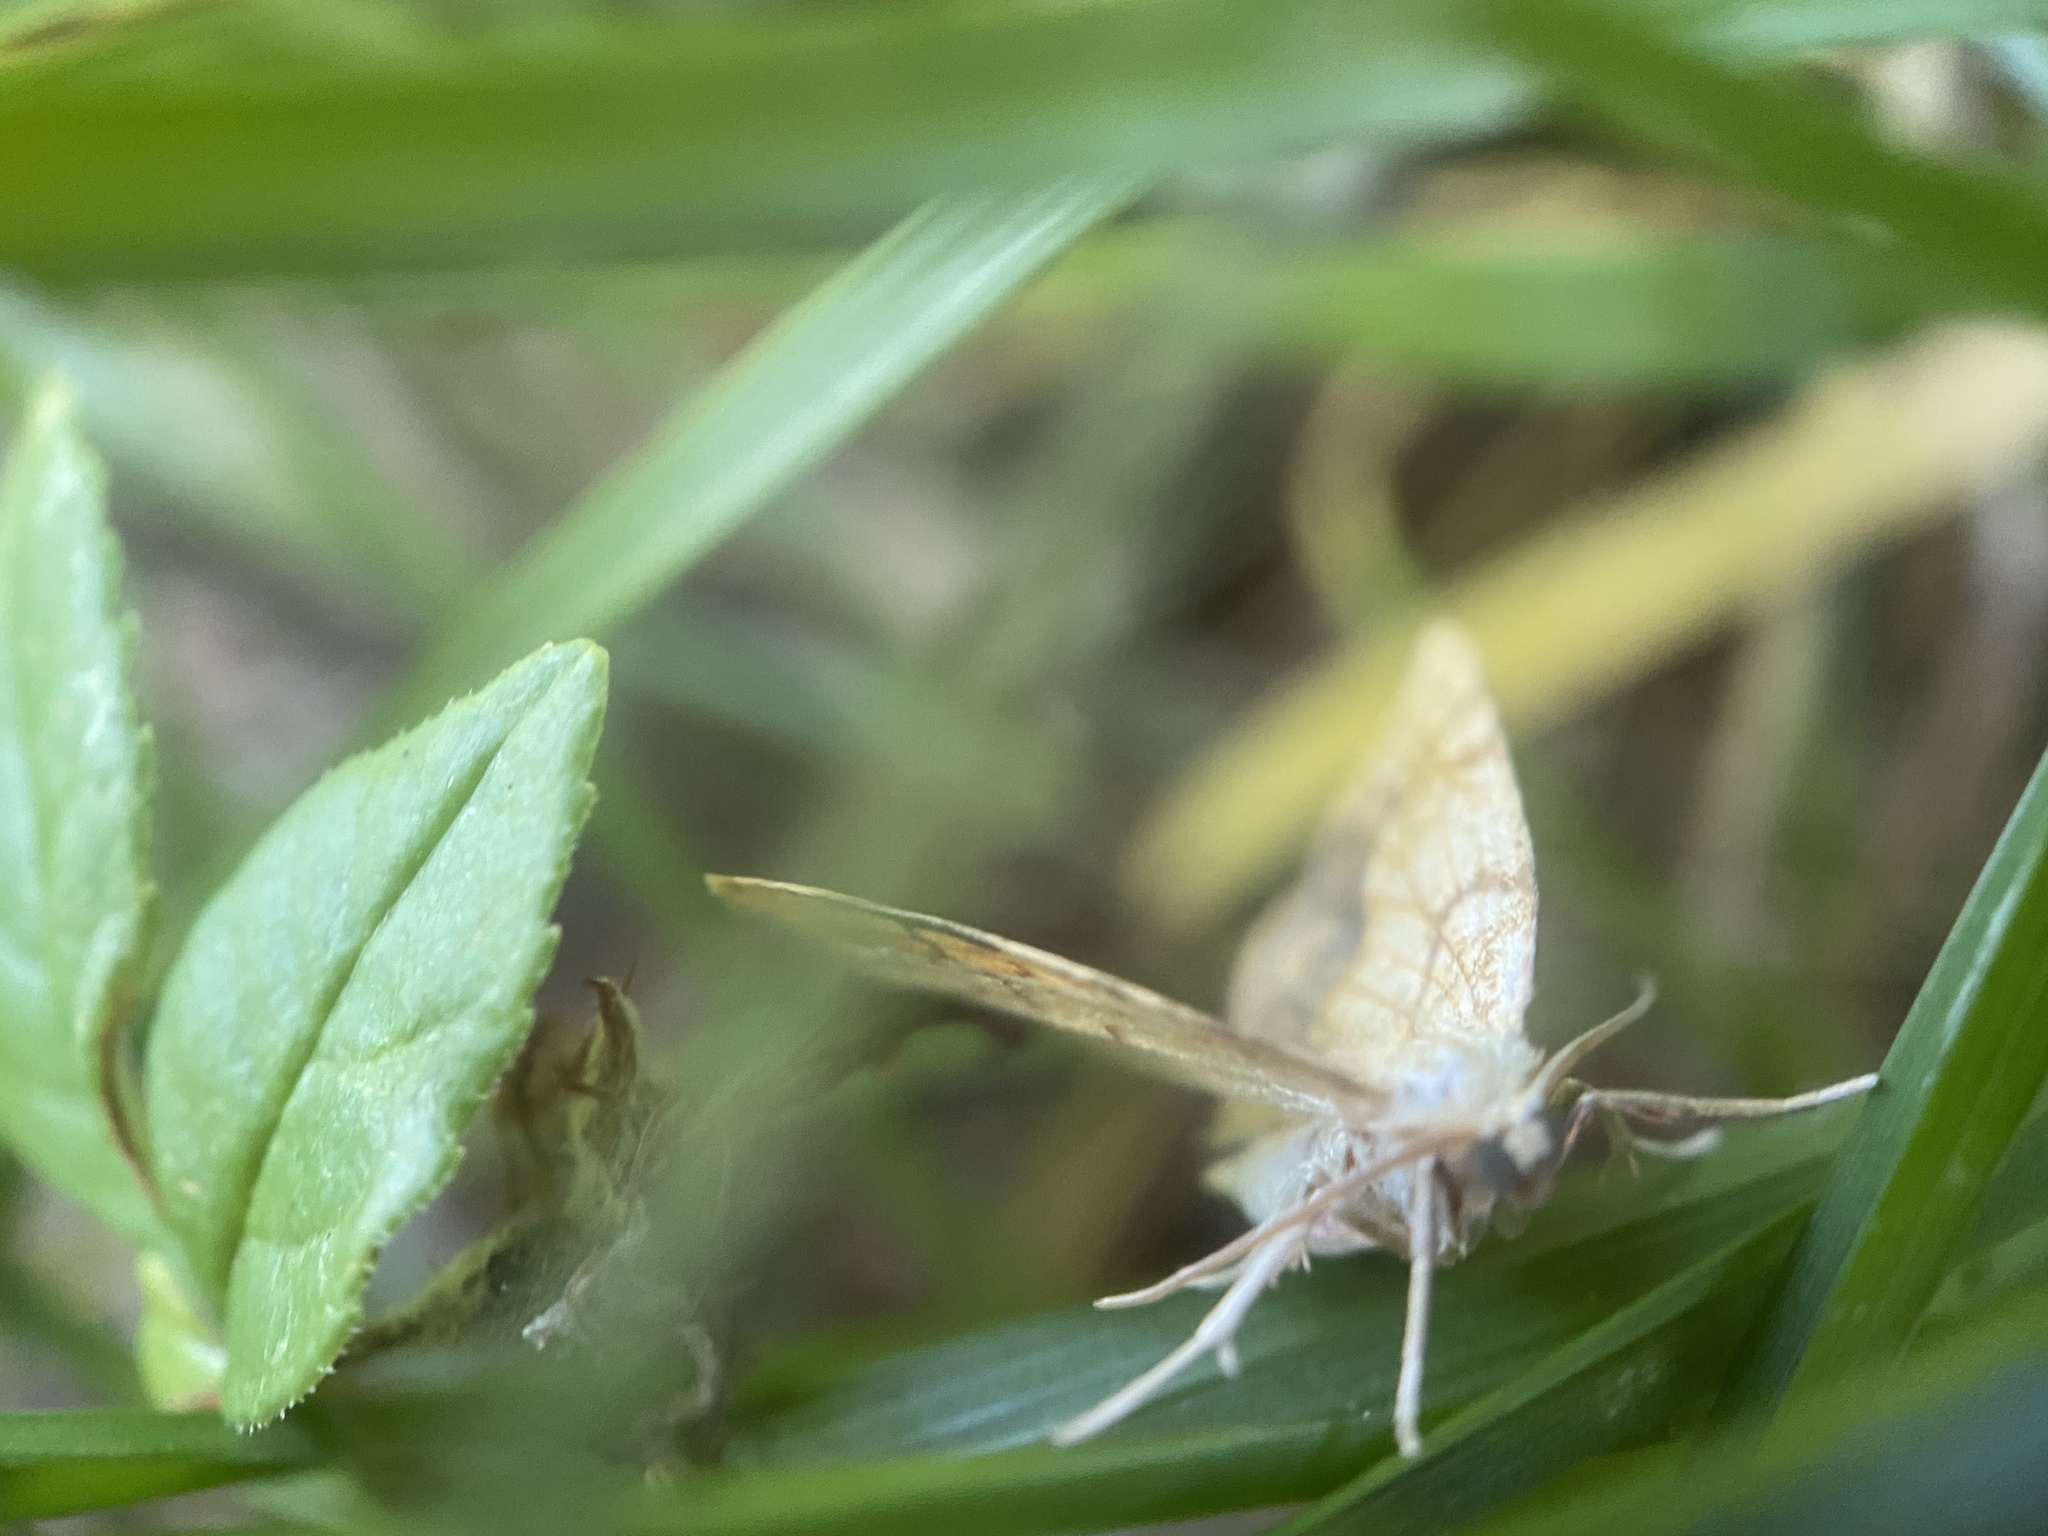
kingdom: Animalia
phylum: Arthropoda
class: Insecta
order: Lepidoptera
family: Geometridae
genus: Nematocampa
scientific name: Nematocampa resistaria
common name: Horned spanworm moth
